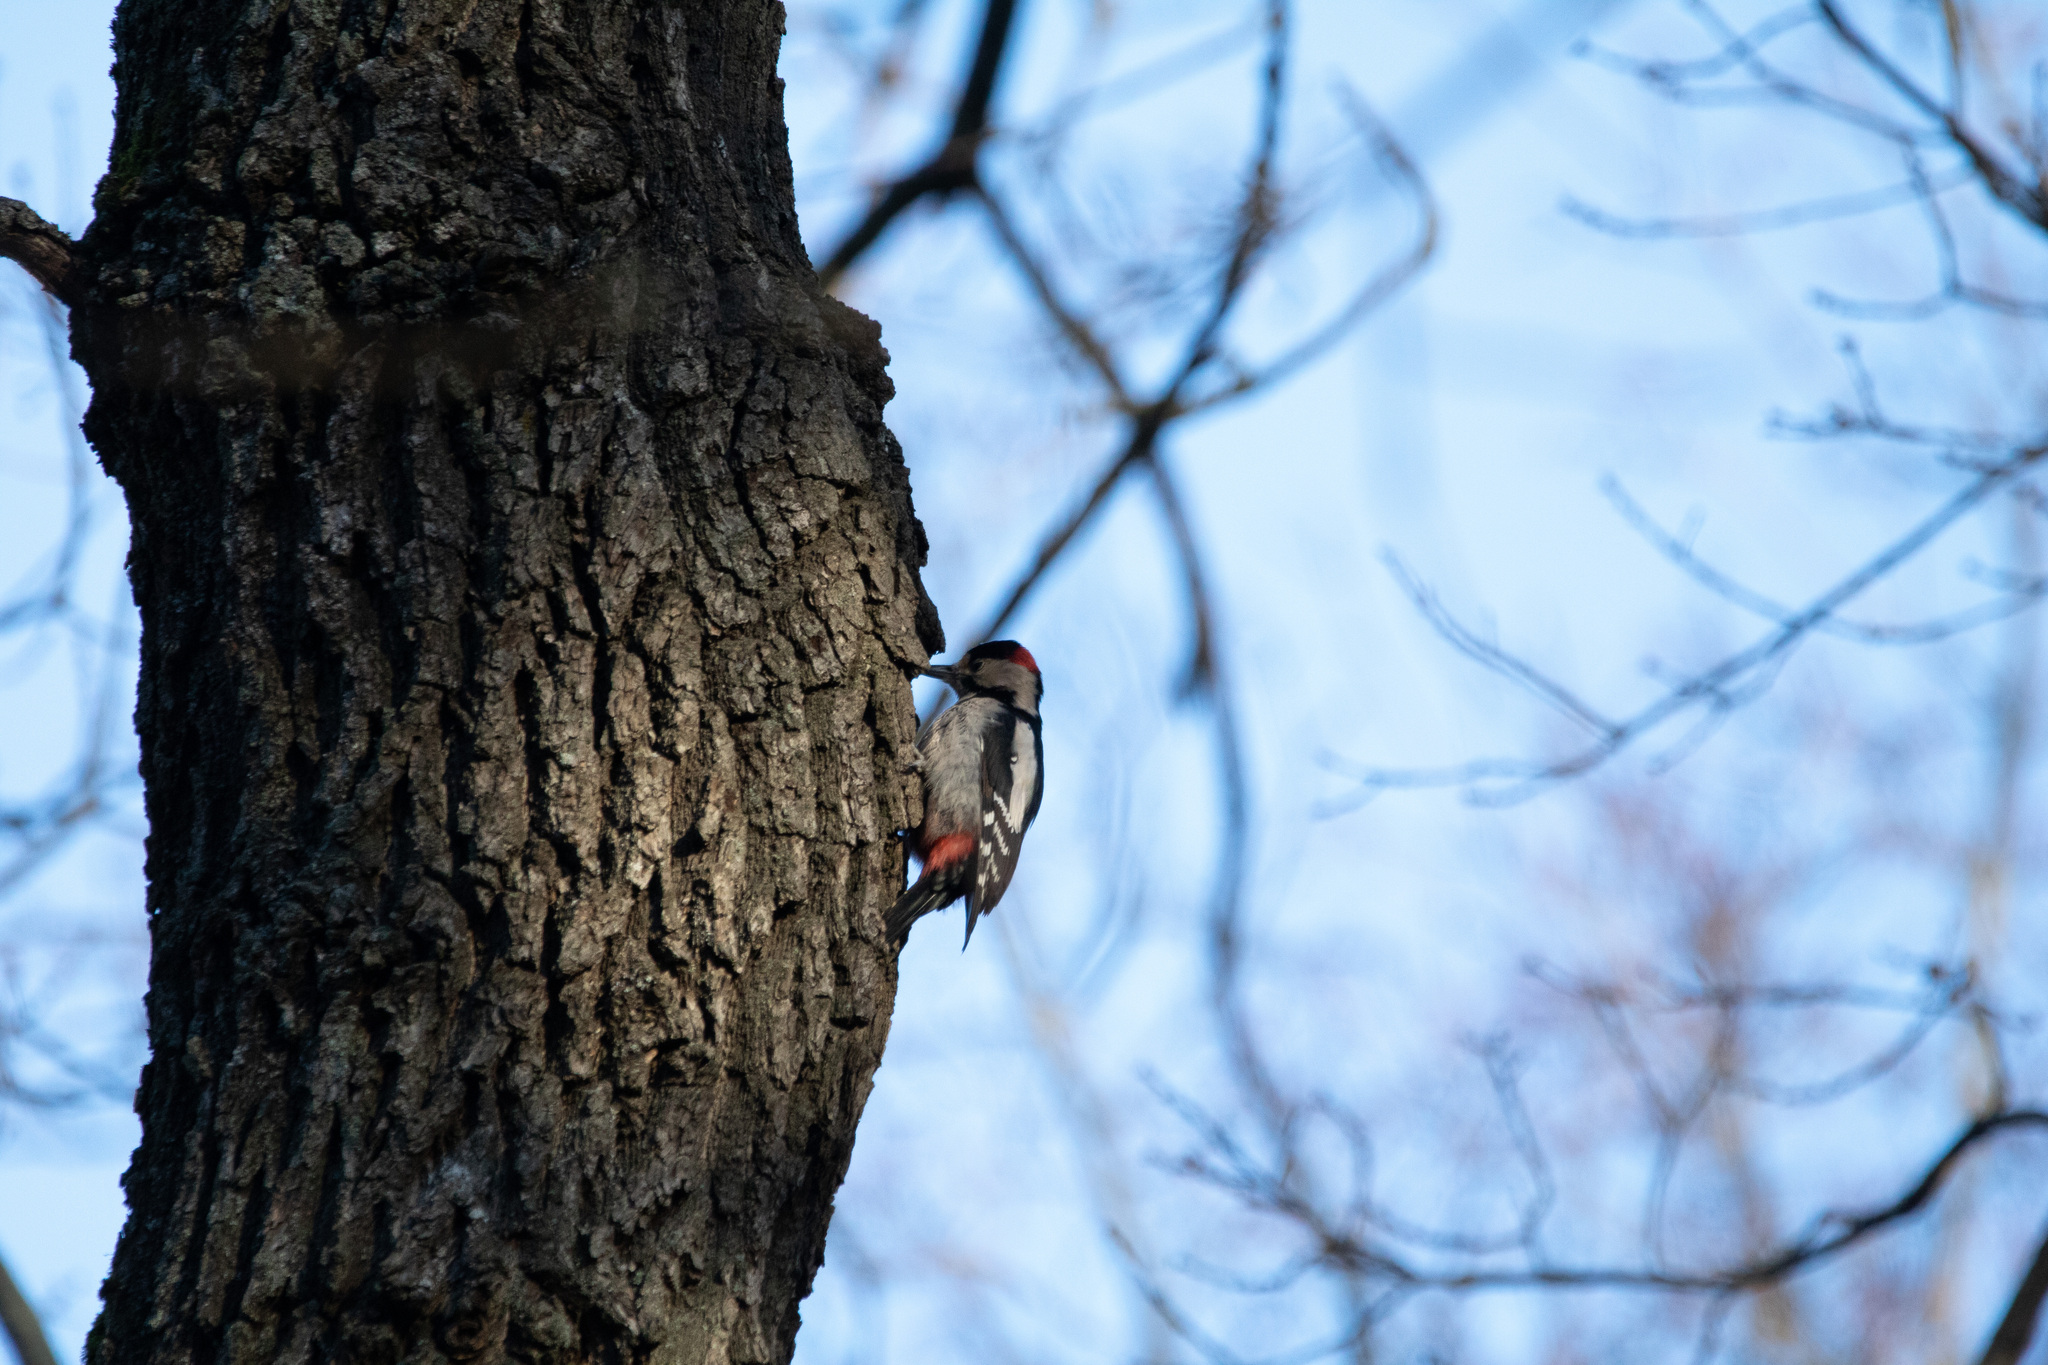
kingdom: Animalia
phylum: Chordata
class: Aves
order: Piciformes
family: Picidae
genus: Dendrocopos
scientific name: Dendrocopos syriacus
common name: Syrian woodpecker
